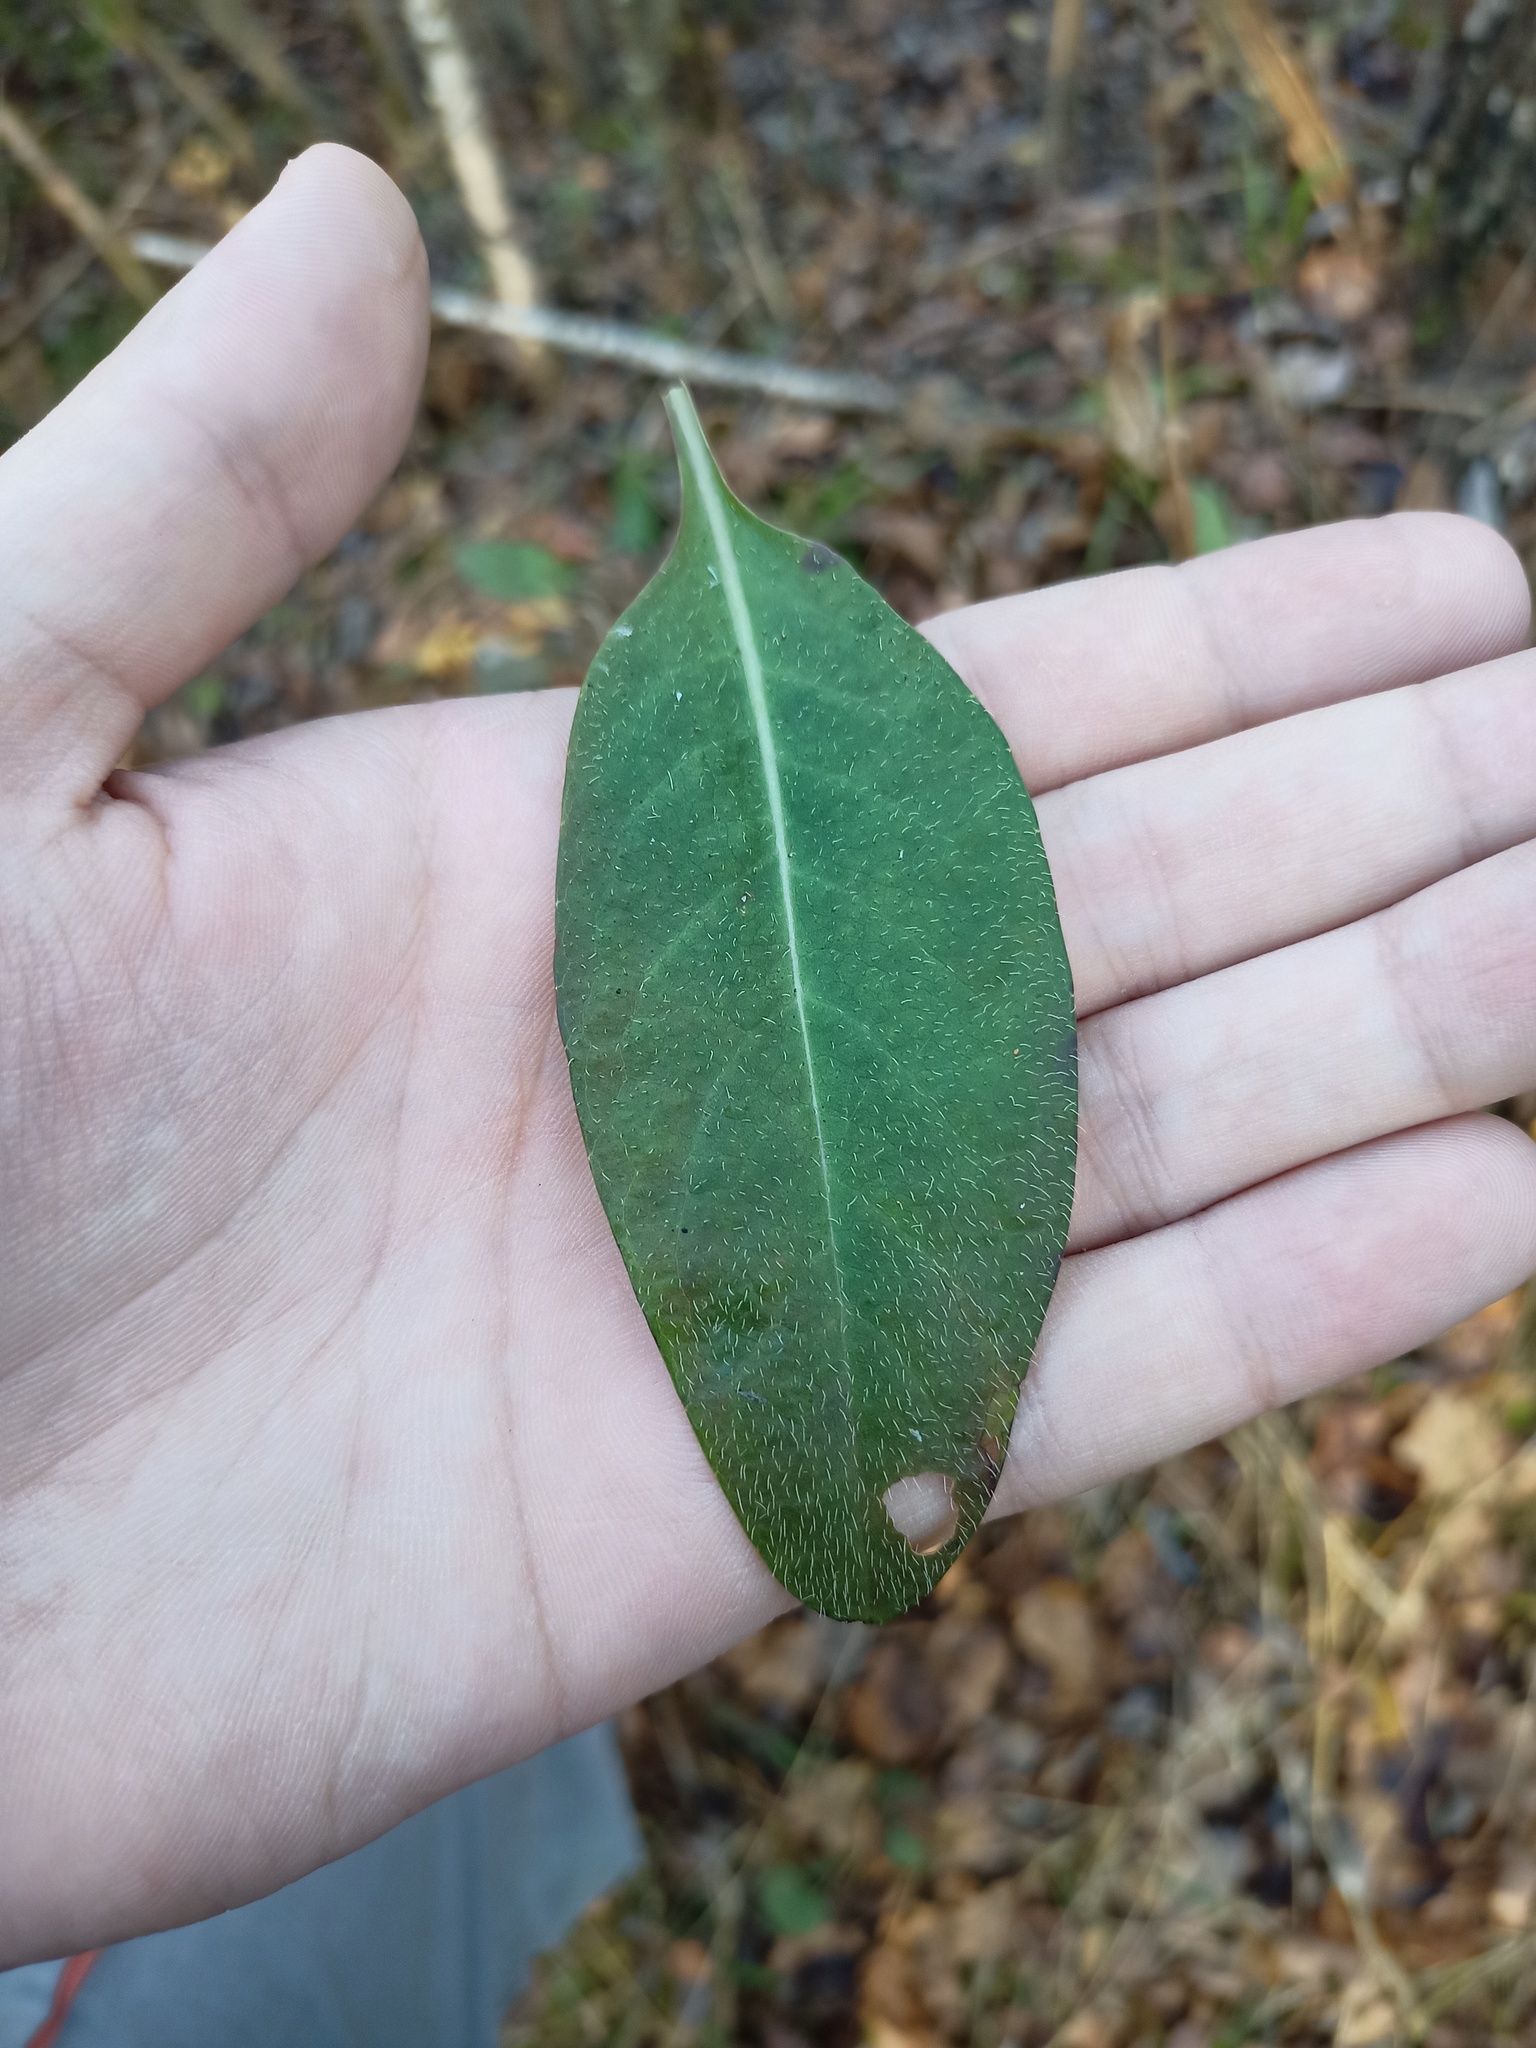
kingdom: Plantae
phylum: Tracheophyta
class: Magnoliopsida
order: Dipsacales
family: Caprifoliaceae
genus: Succisa
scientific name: Succisa pratensis
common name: Devil's-bit
